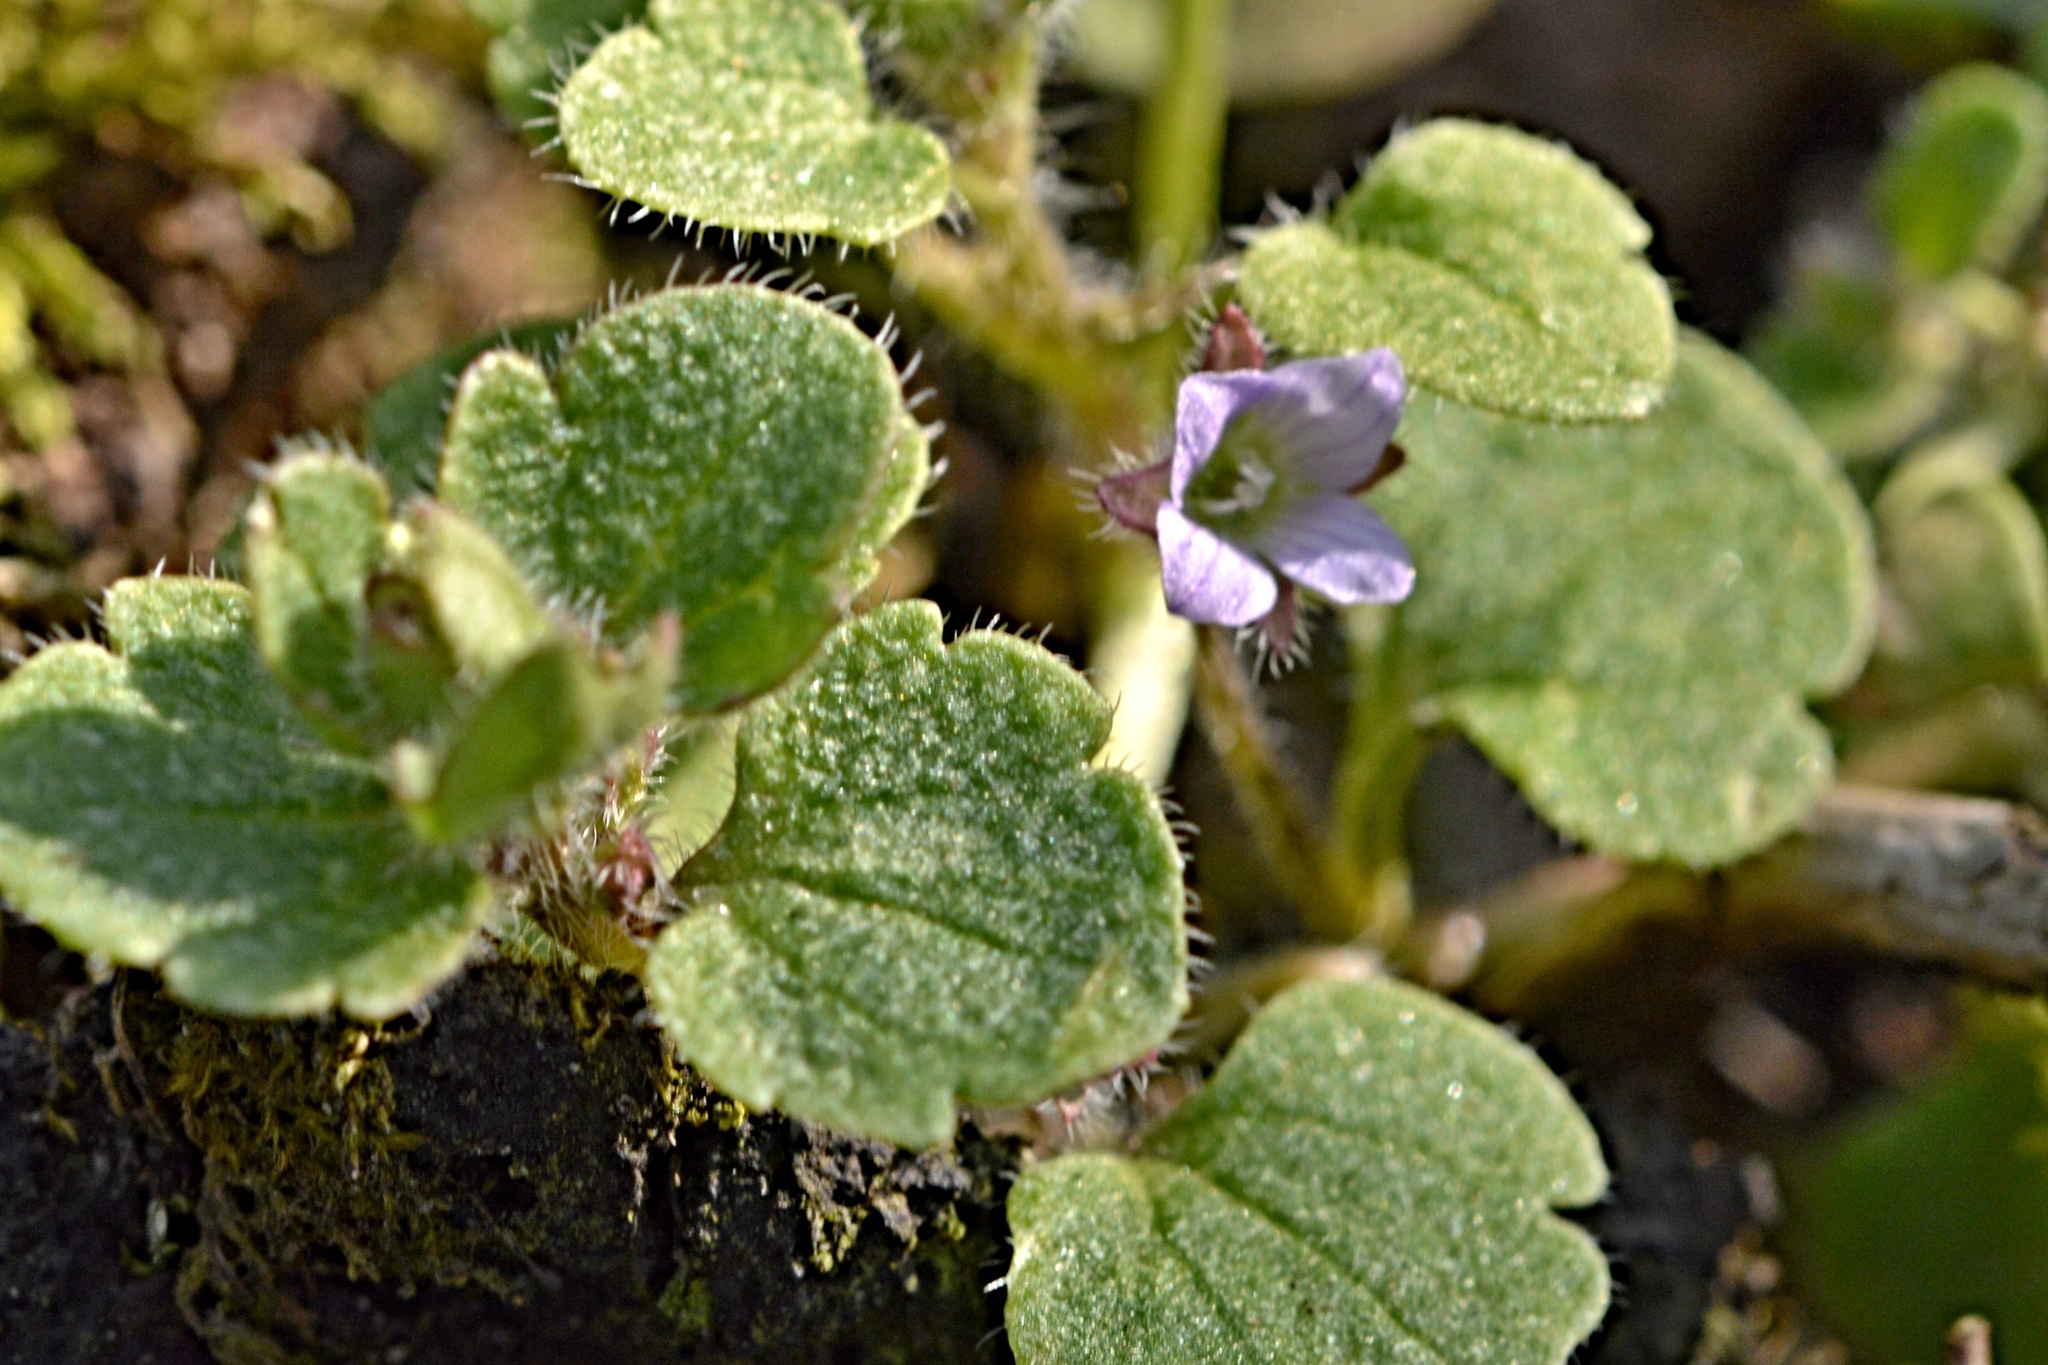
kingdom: Plantae
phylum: Tracheophyta
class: Magnoliopsida
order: Lamiales
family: Plantaginaceae
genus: Veronica
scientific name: Veronica sublobata
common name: False ivy-leaved speedwell
